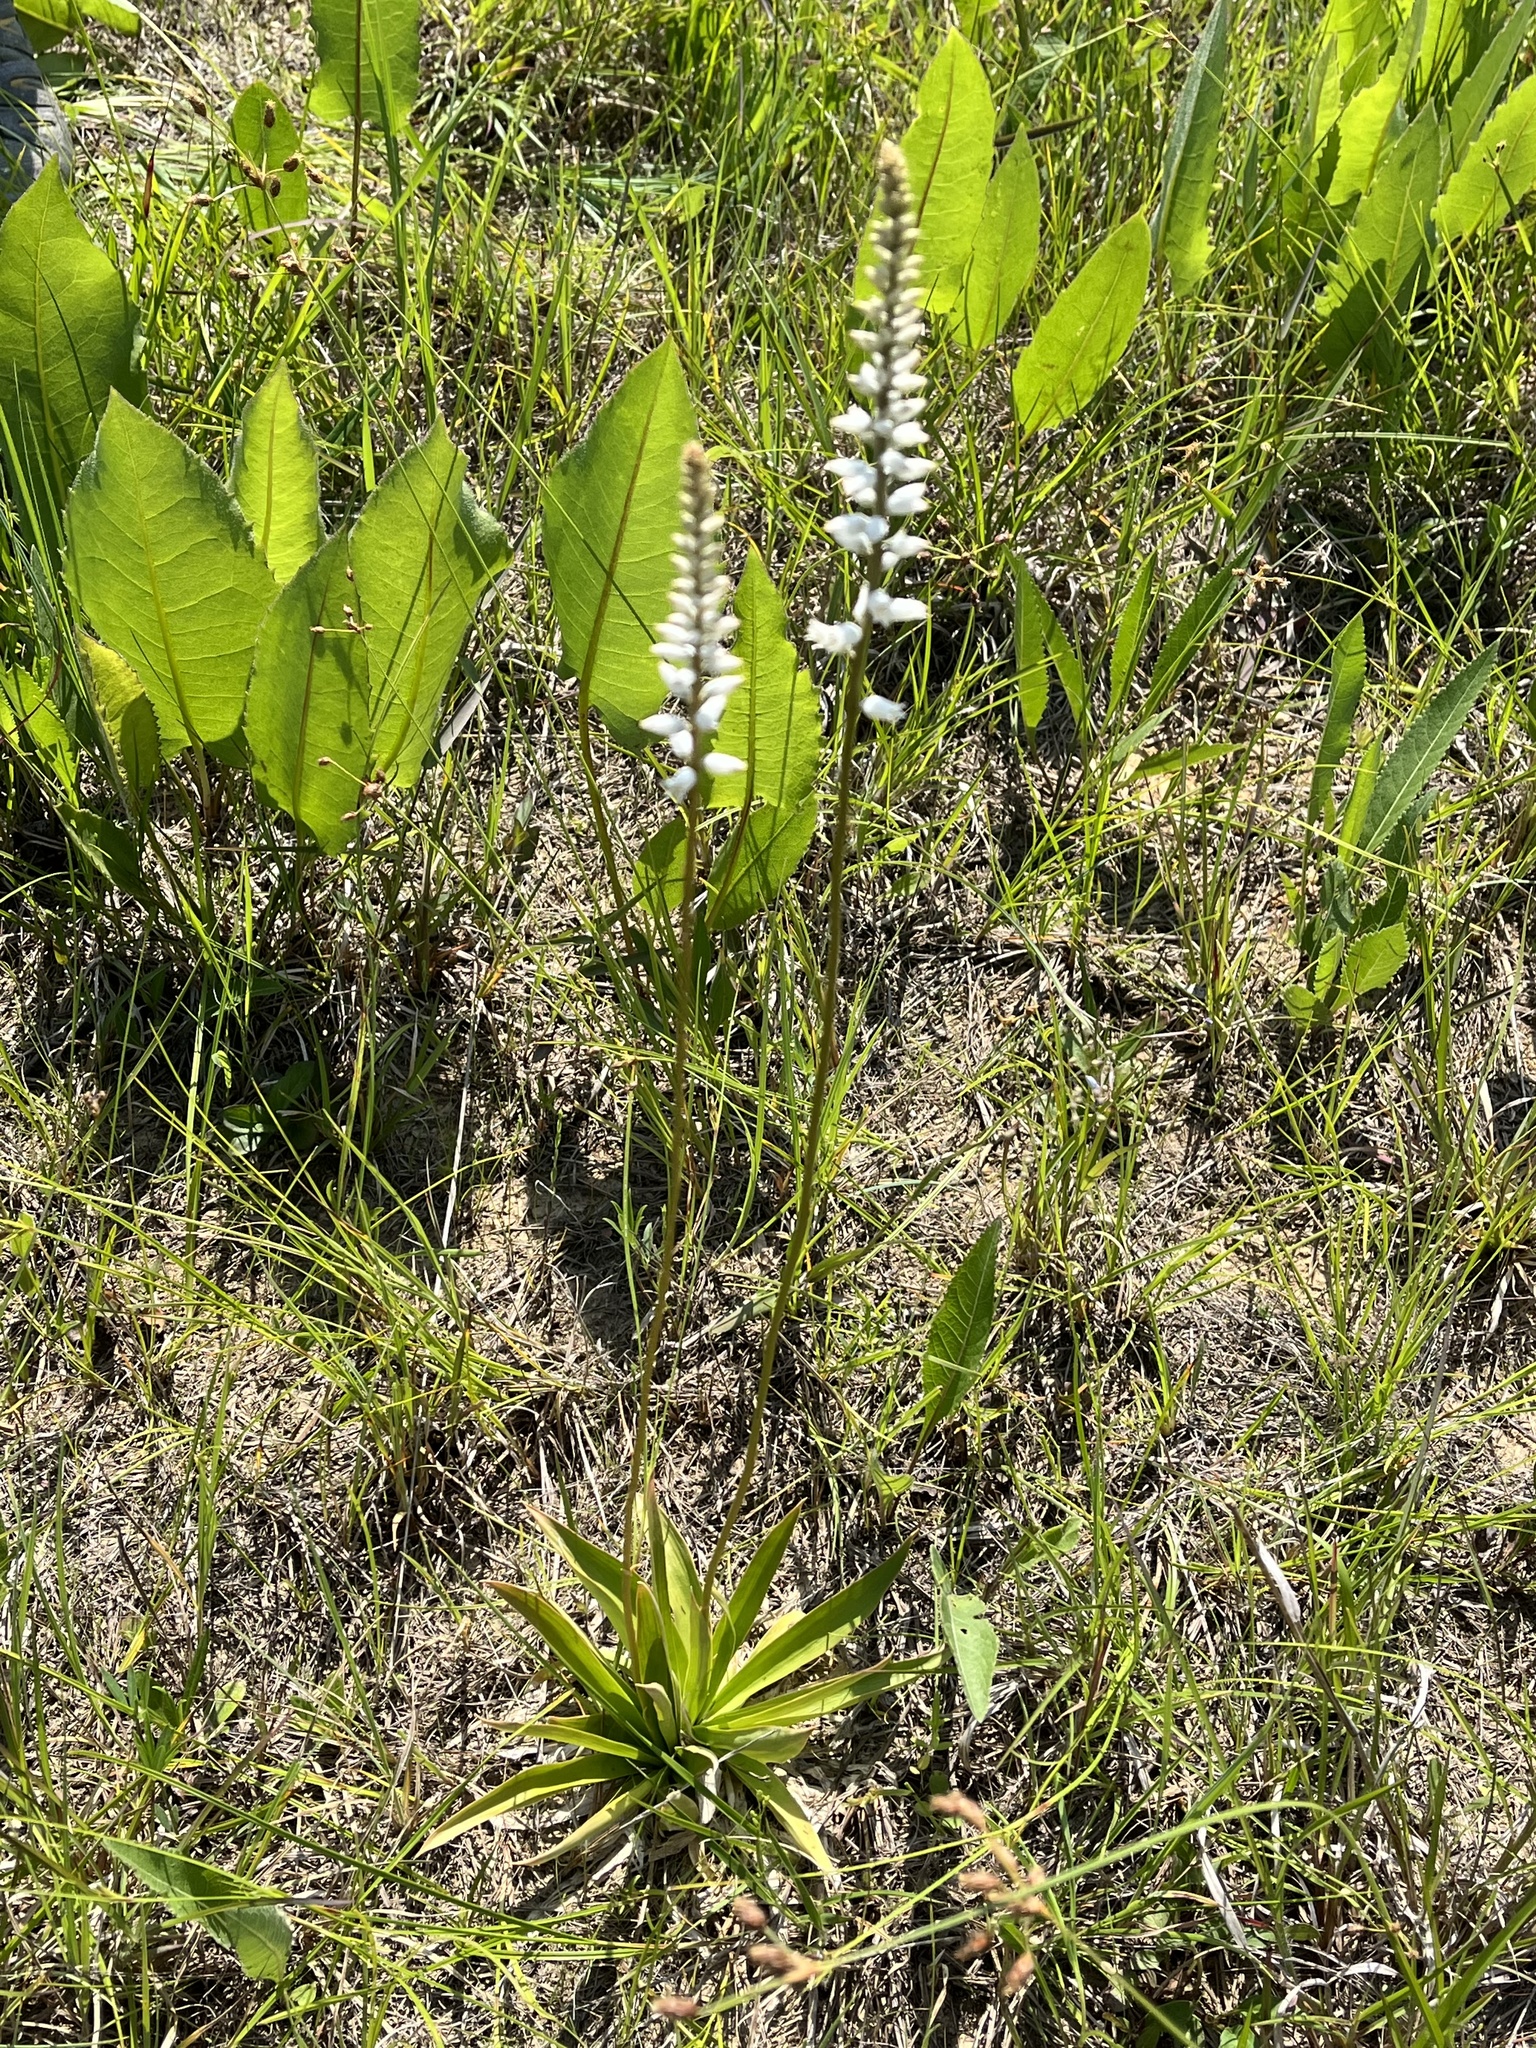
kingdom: Plantae
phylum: Tracheophyta
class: Liliopsida
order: Dioscoreales
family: Nartheciaceae
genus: Aletris
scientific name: Aletris farinosa
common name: Colicroot
